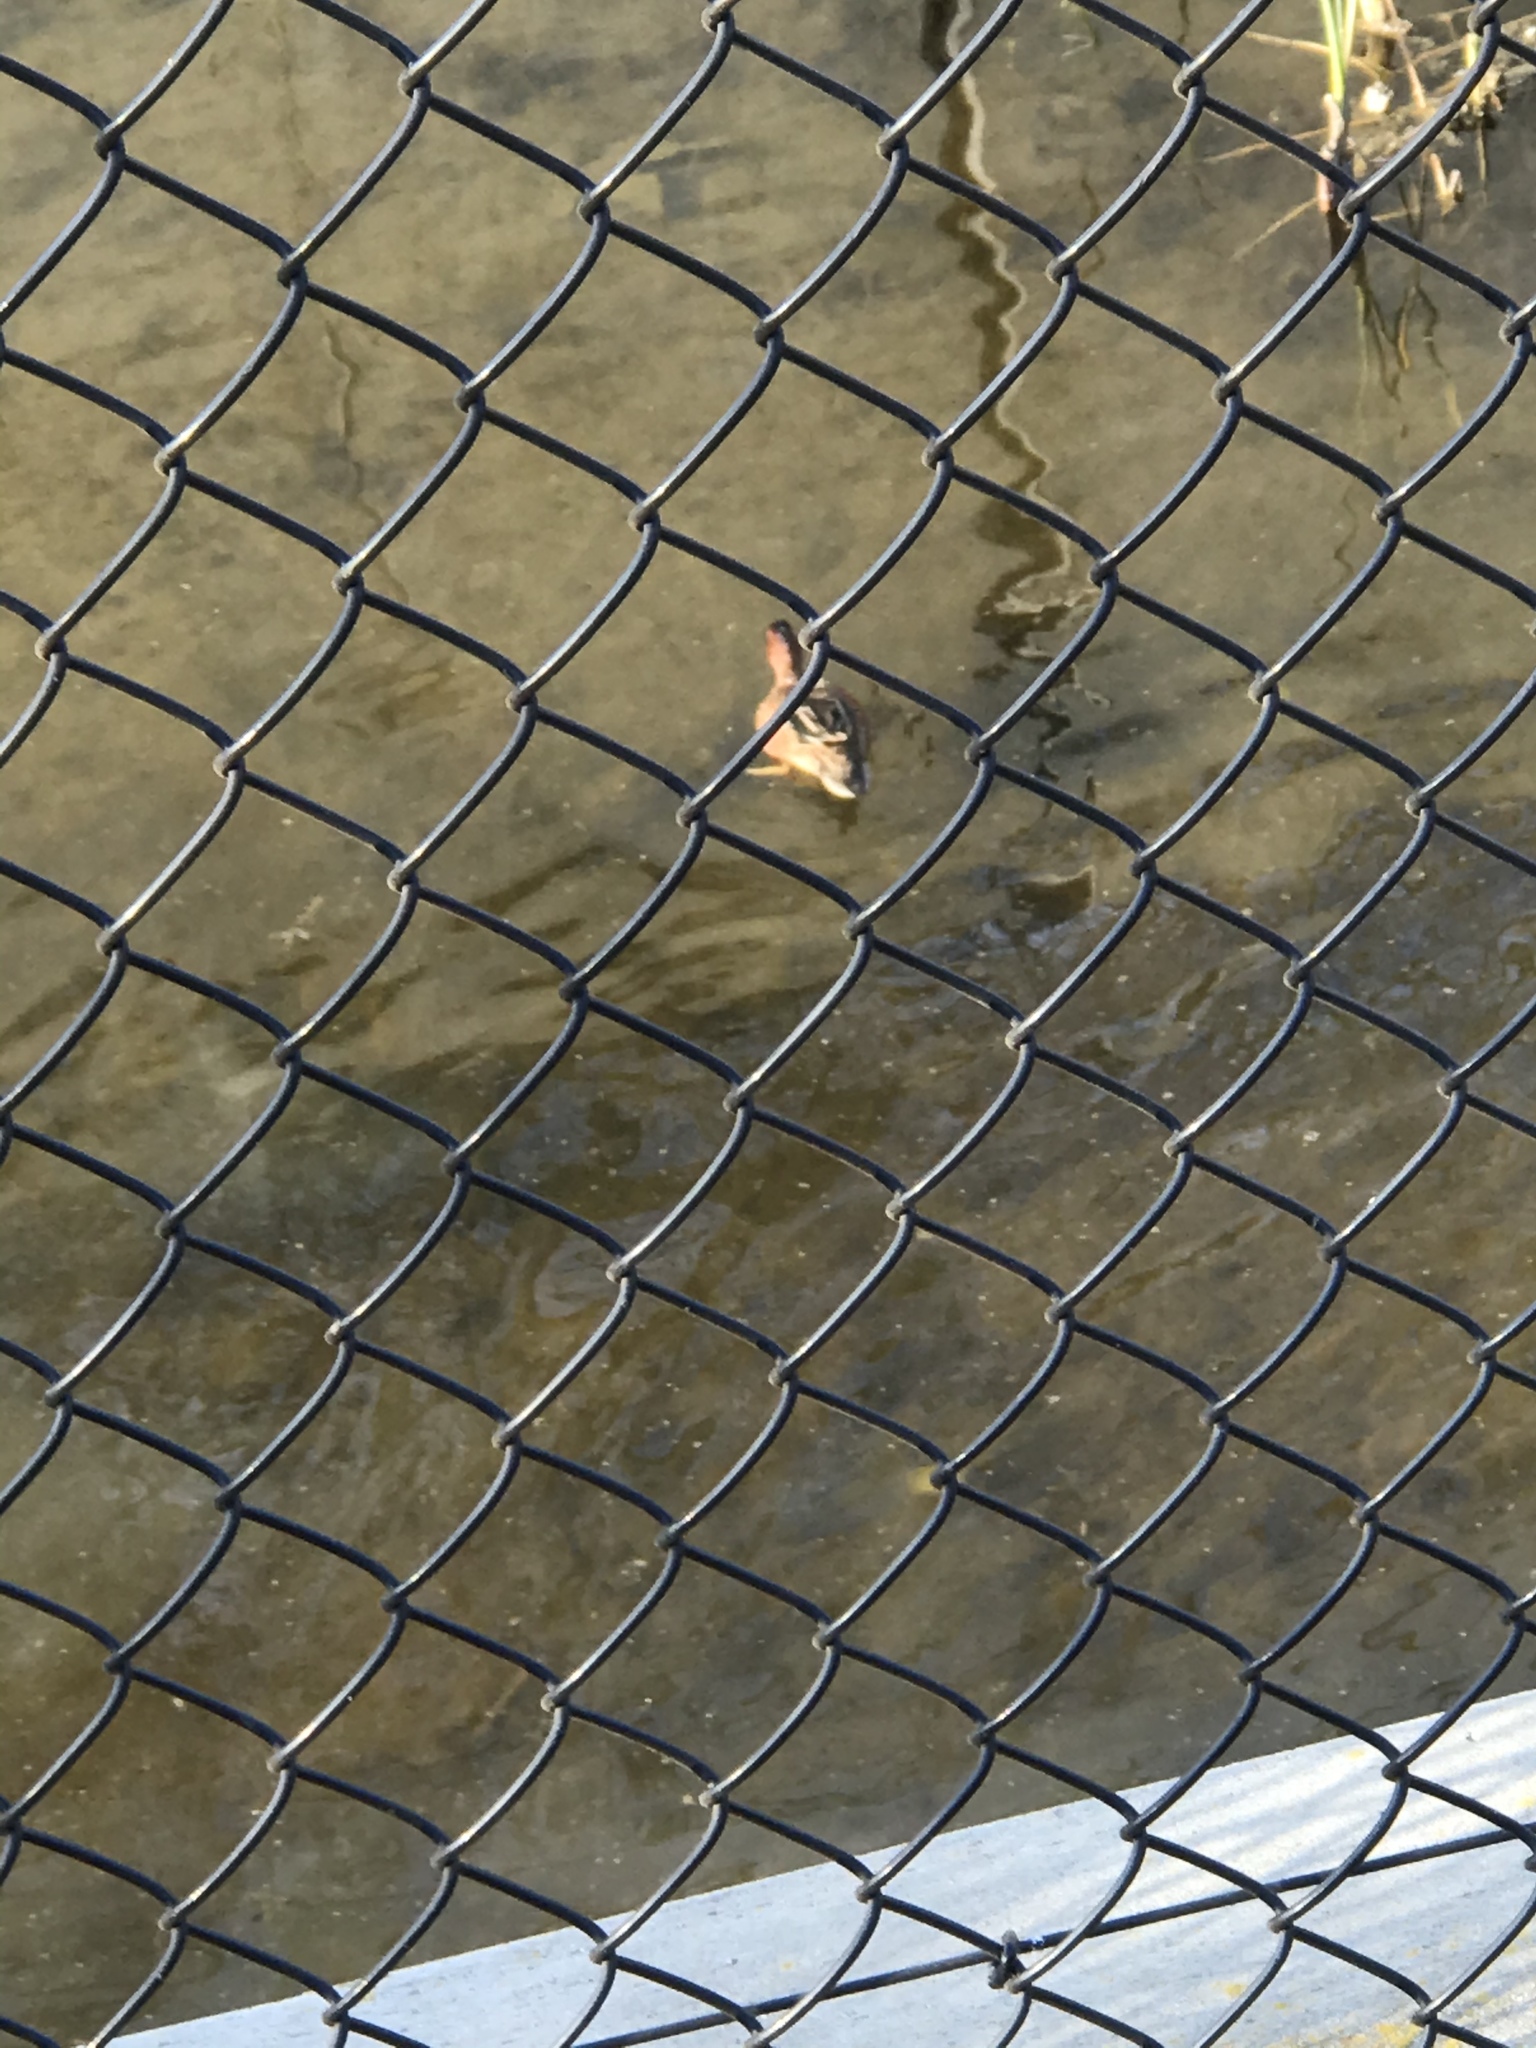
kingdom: Animalia
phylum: Chordata
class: Aves
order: Anseriformes
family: Anatidae
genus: Spatula
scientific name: Spatula cyanoptera
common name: Cinnamon teal
